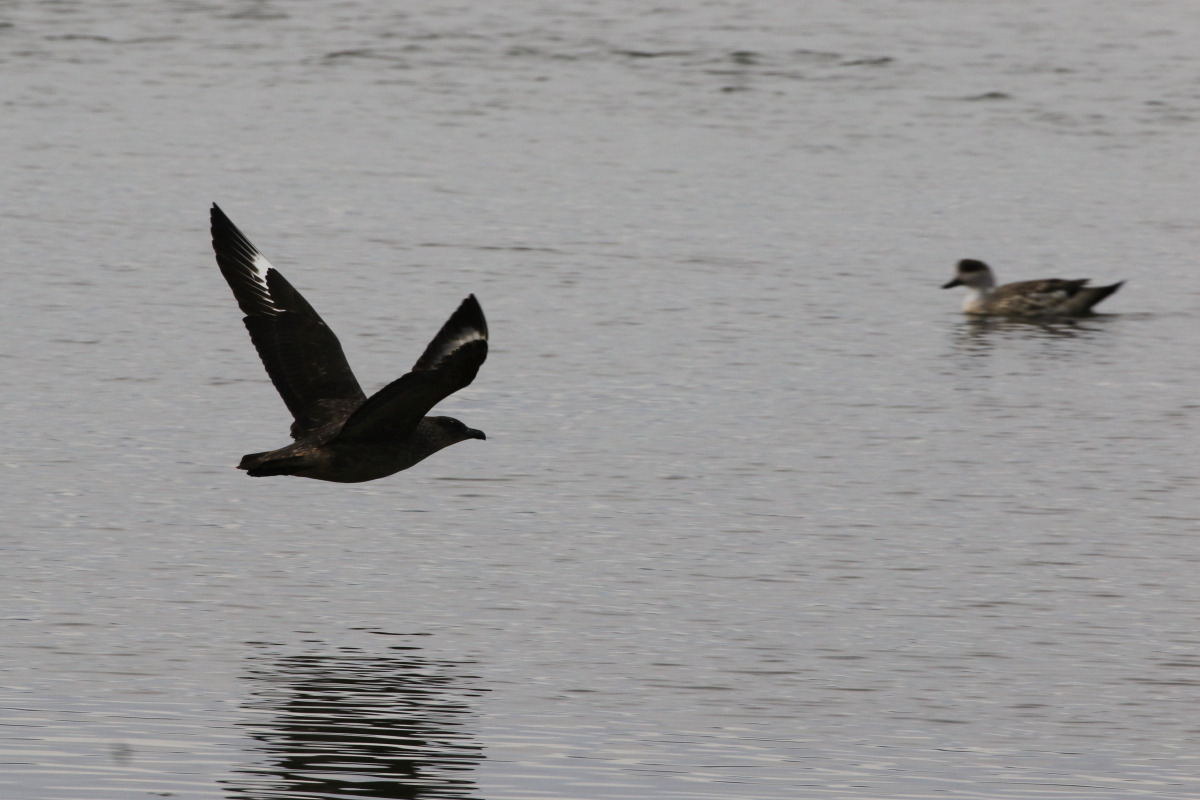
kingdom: Animalia
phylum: Chordata
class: Aves
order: Charadriiformes
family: Stercorariidae
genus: Stercorarius
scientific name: Stercorarius chilensis
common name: Chilean skua
